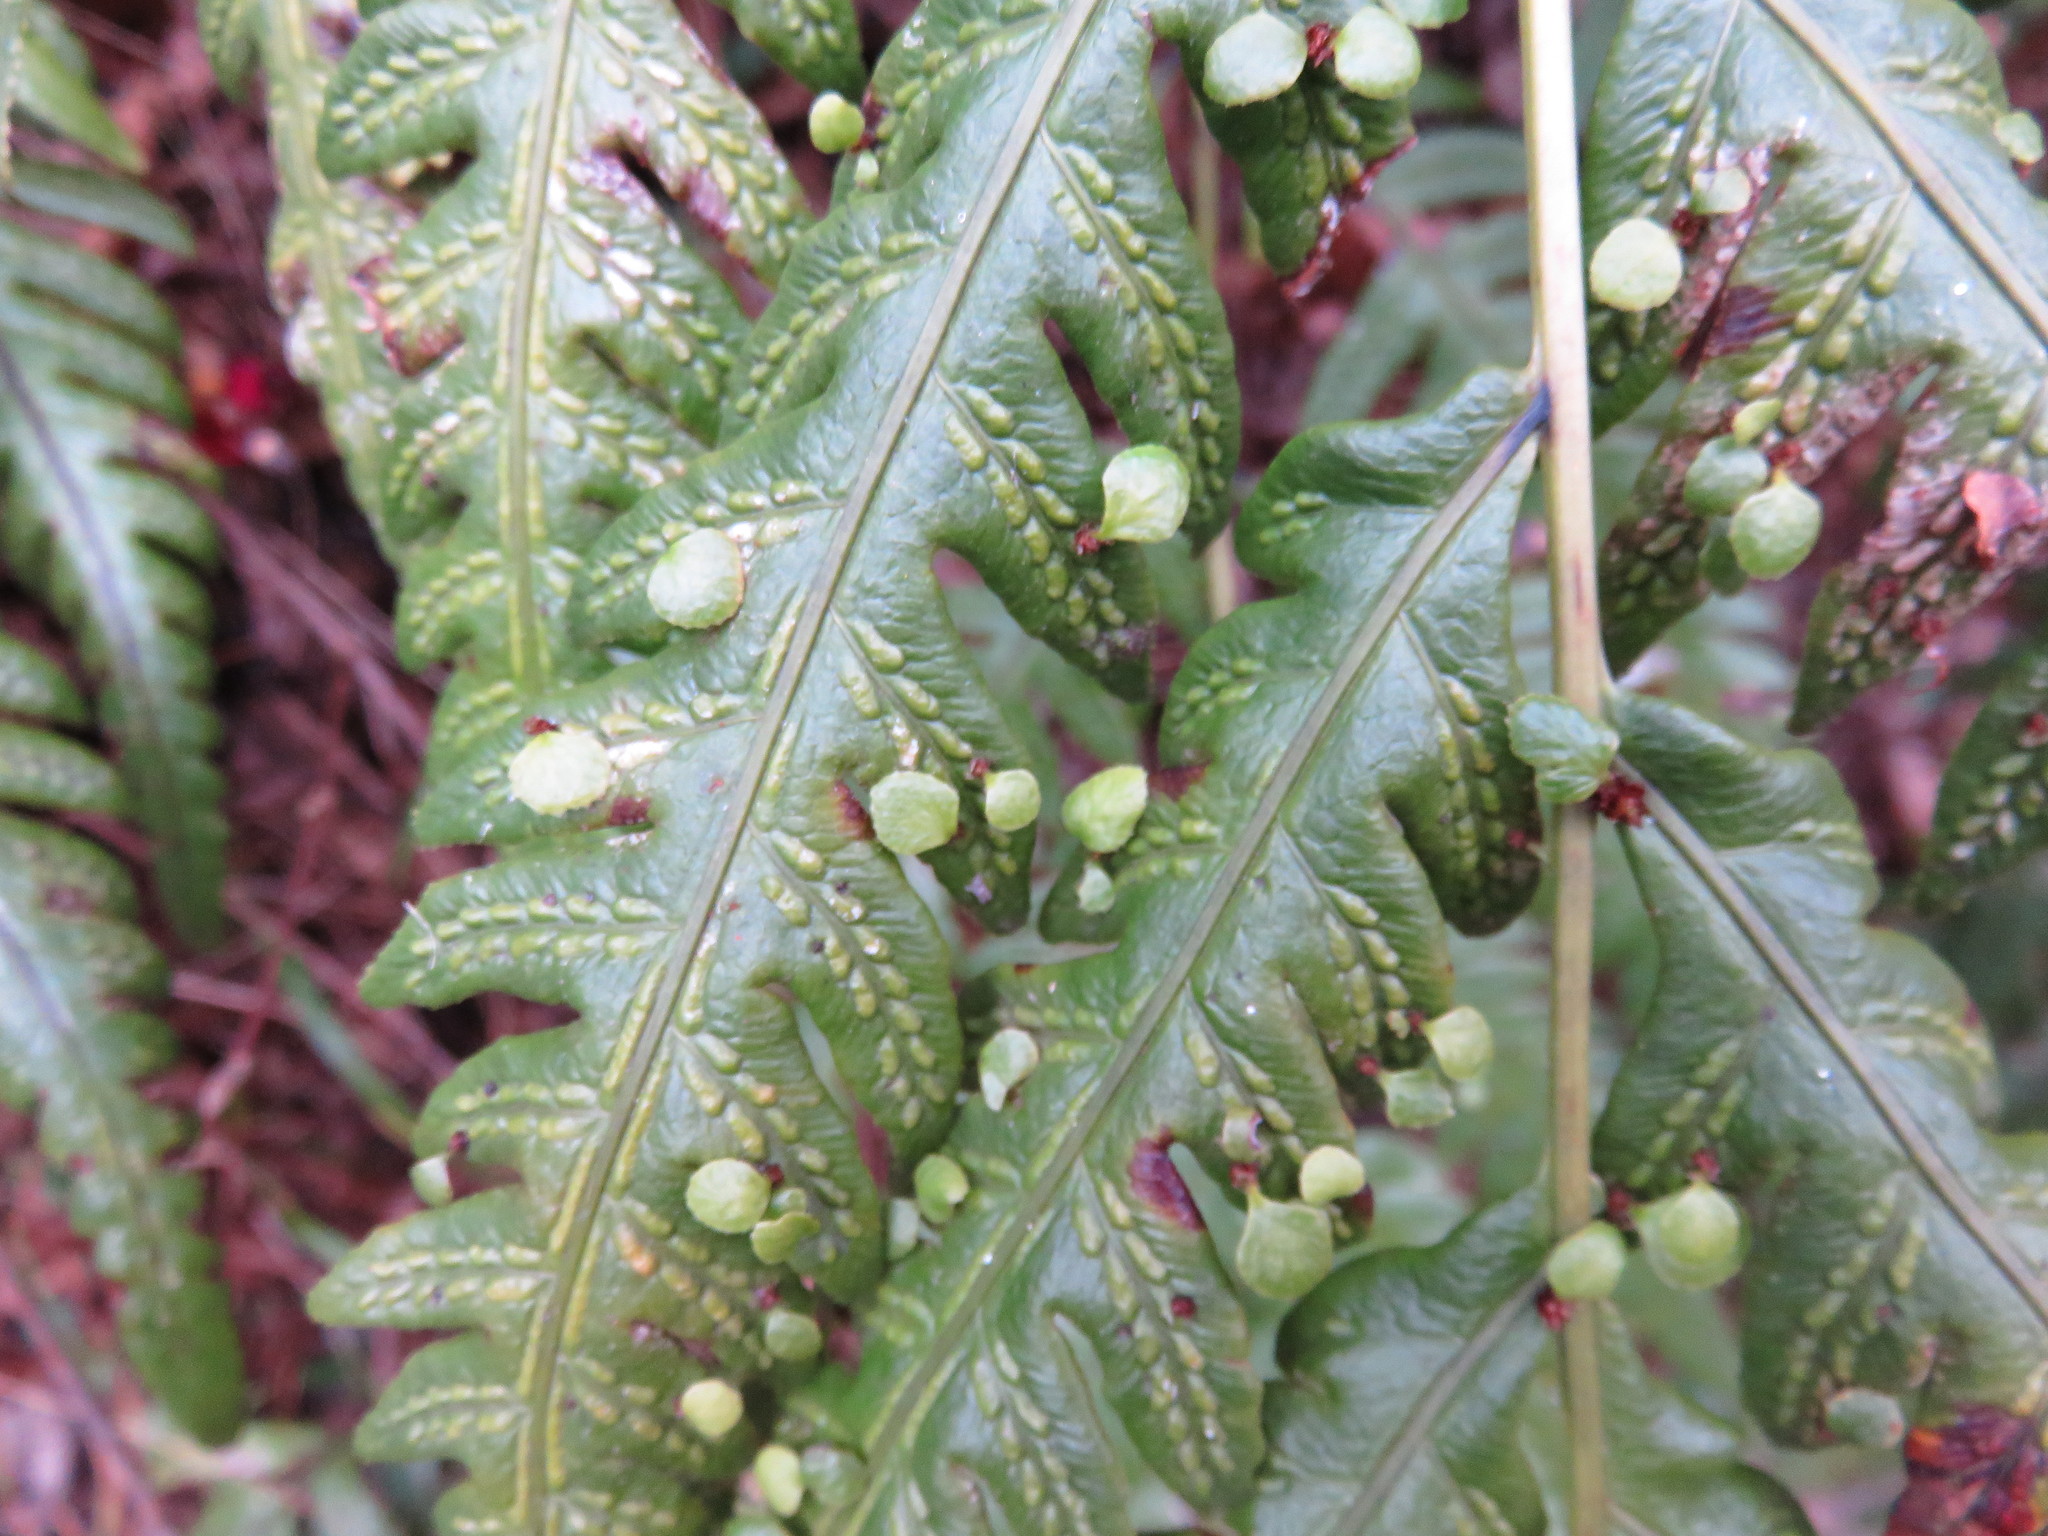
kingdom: Plantae
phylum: Tracheophyta
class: Polypodiopsida
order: Polypodiales
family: Blechnaceae
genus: Woodwardia
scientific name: Woodwardia orientalis
